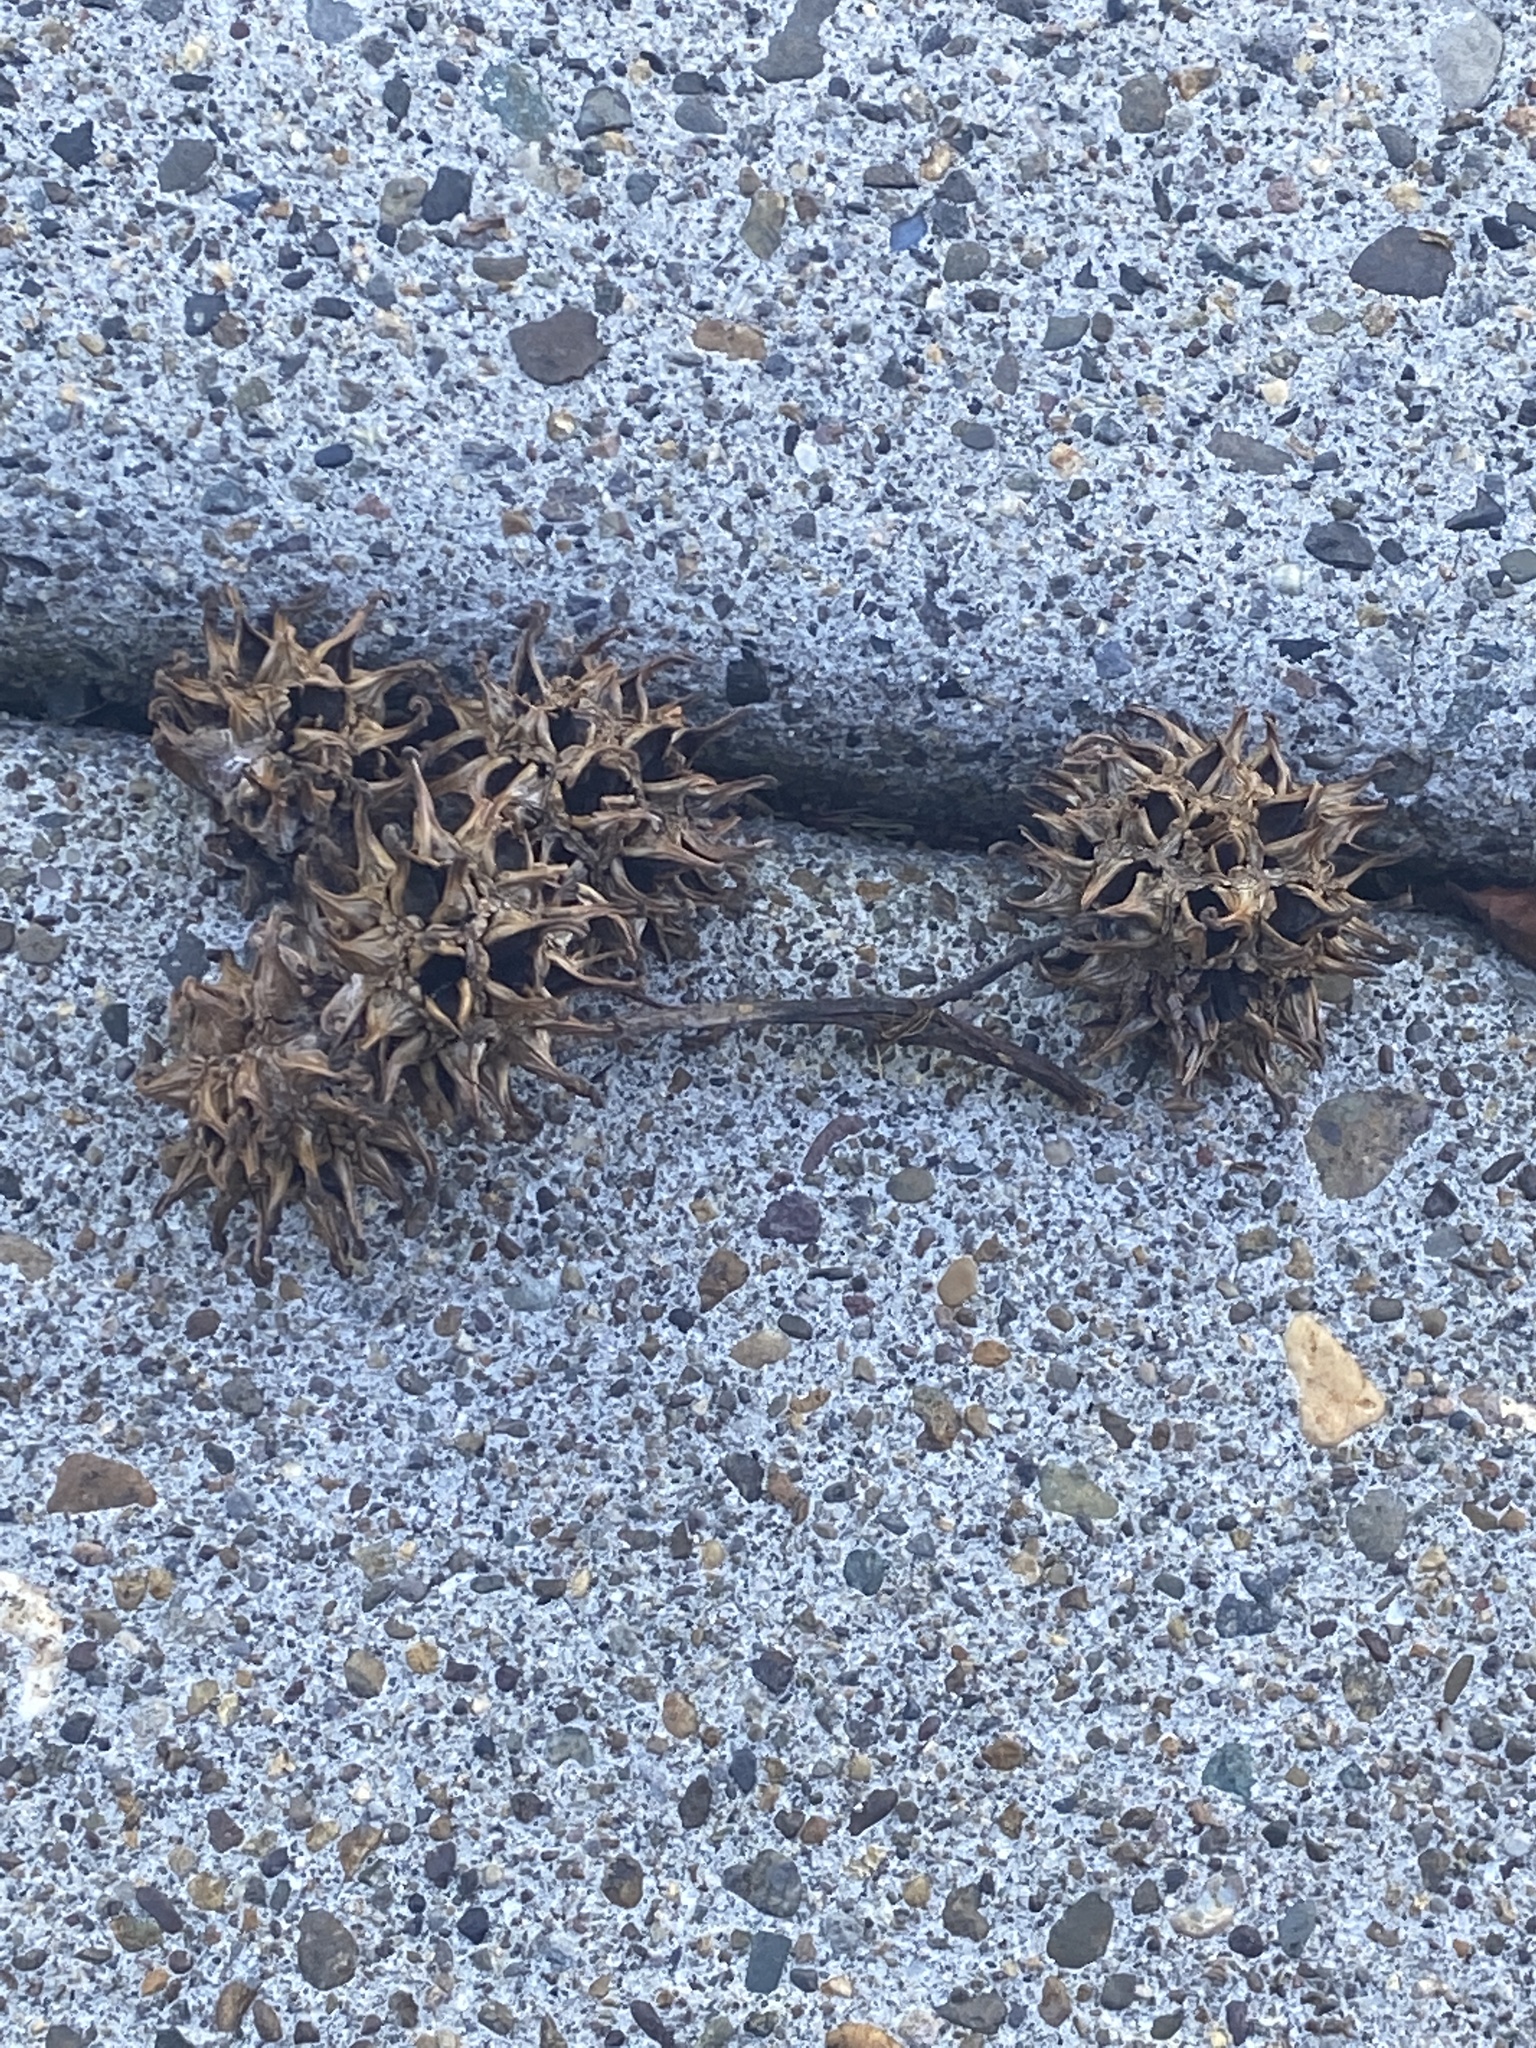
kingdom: Plantae
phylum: Tracheophyta
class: Magnoliopsida
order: Saxifragales
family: Altingiaceae
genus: Liquidambar
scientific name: Liquidambar styraciflua
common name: Sweet gum
